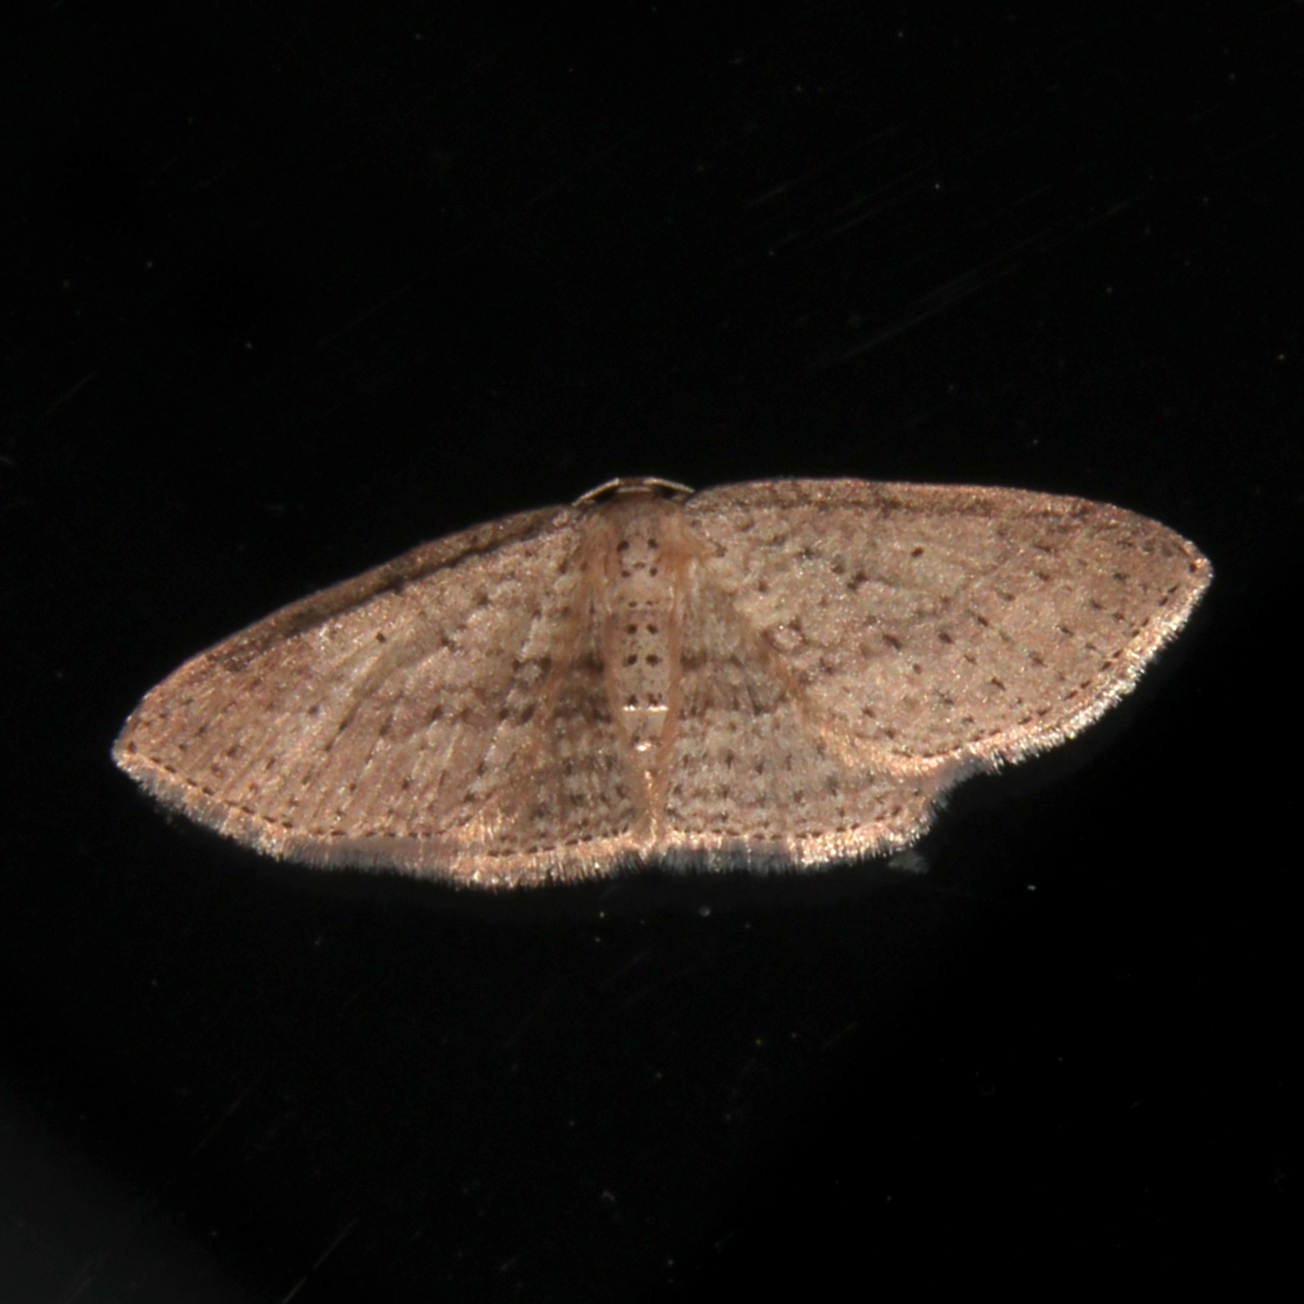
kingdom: Animalia
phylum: Arthropoda
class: Insecta
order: Lepidoptera
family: Geometridae
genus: Poecilasthena
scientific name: Poecilasthena schistaria
